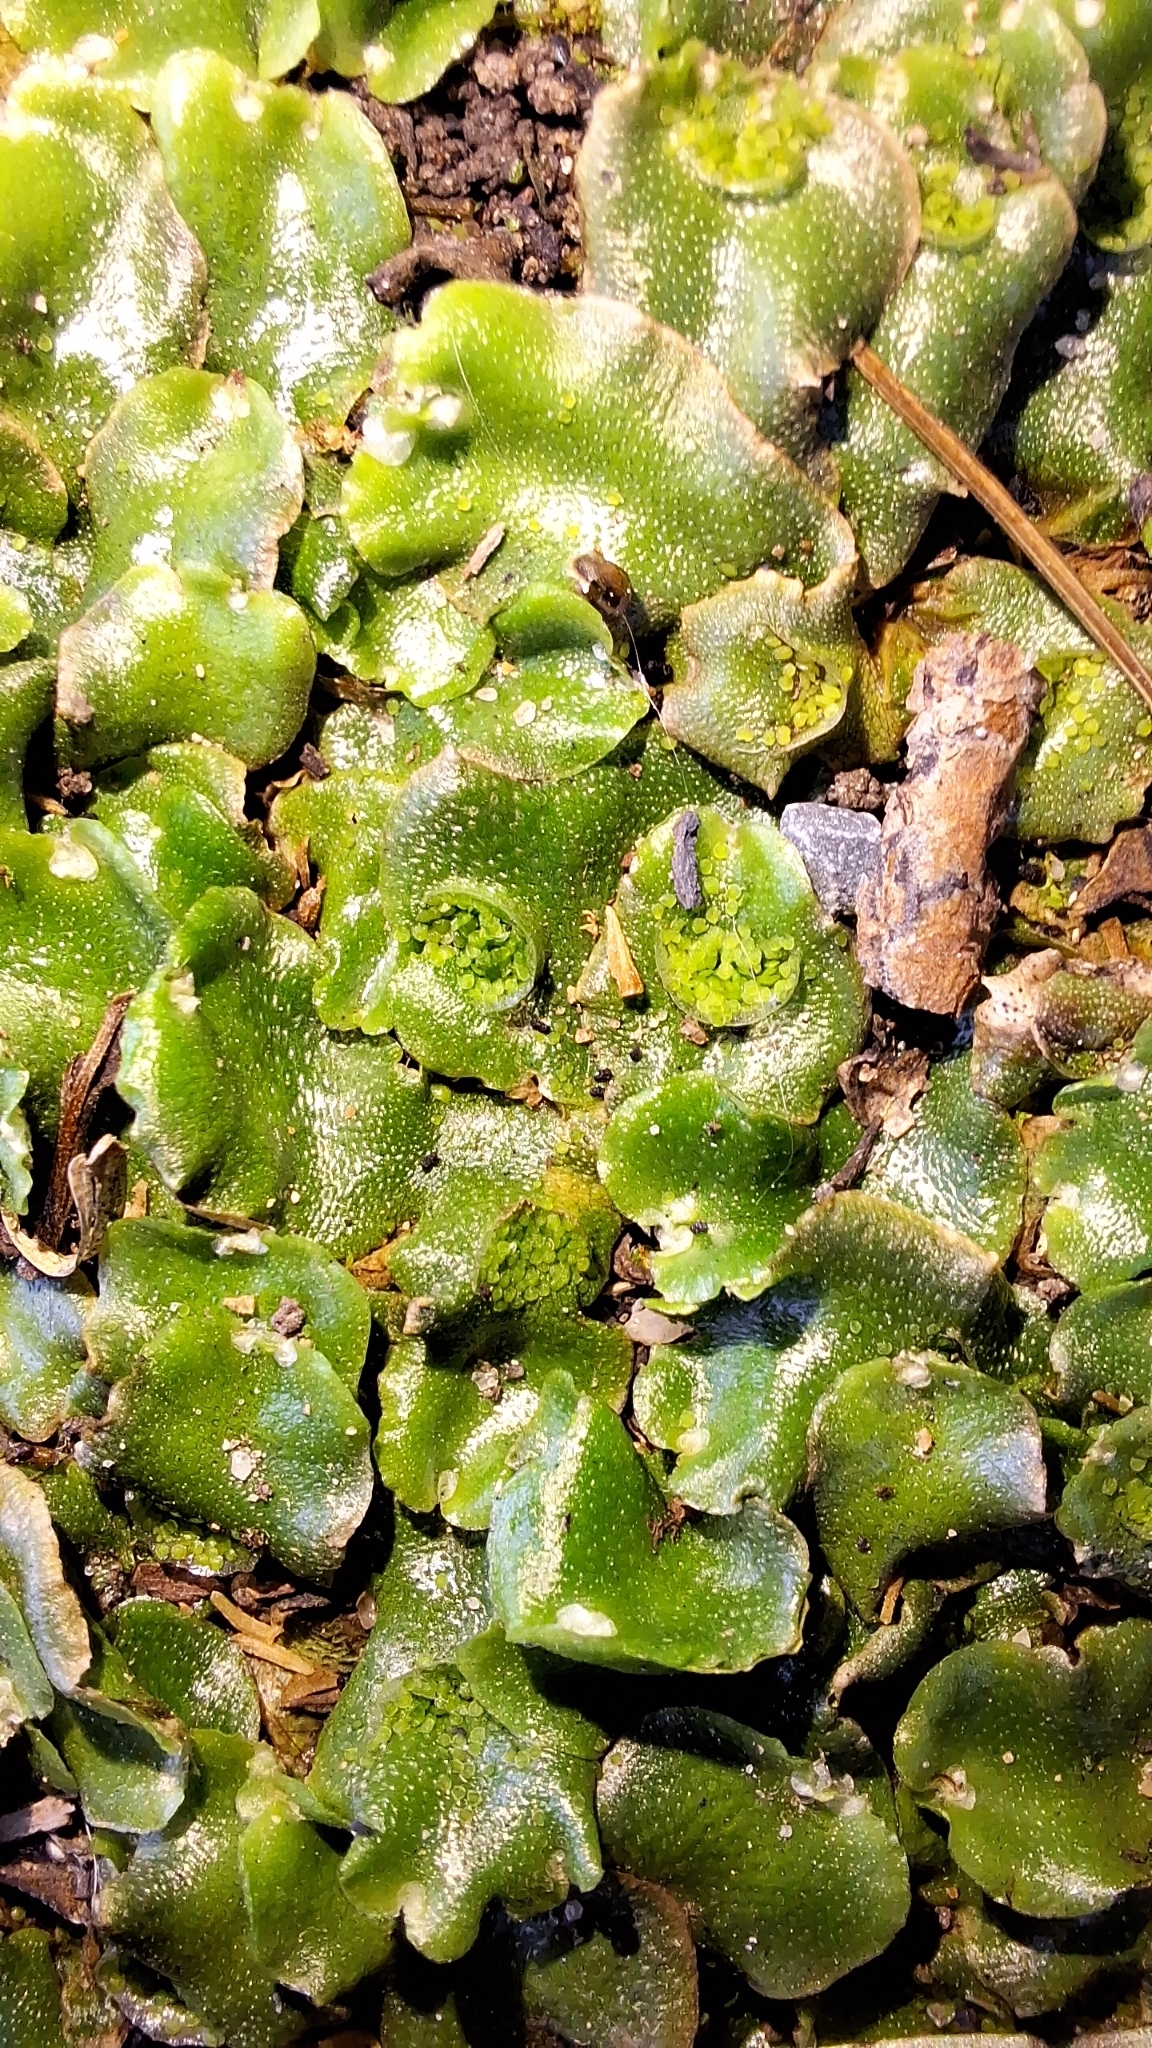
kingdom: Plantae
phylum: Marchantiophyta
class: Marchantiopsida
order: Lunulariales
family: Lunulariaceae
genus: Lunularia
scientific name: Lunularia cruciata
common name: Crescent-cup liverwort
